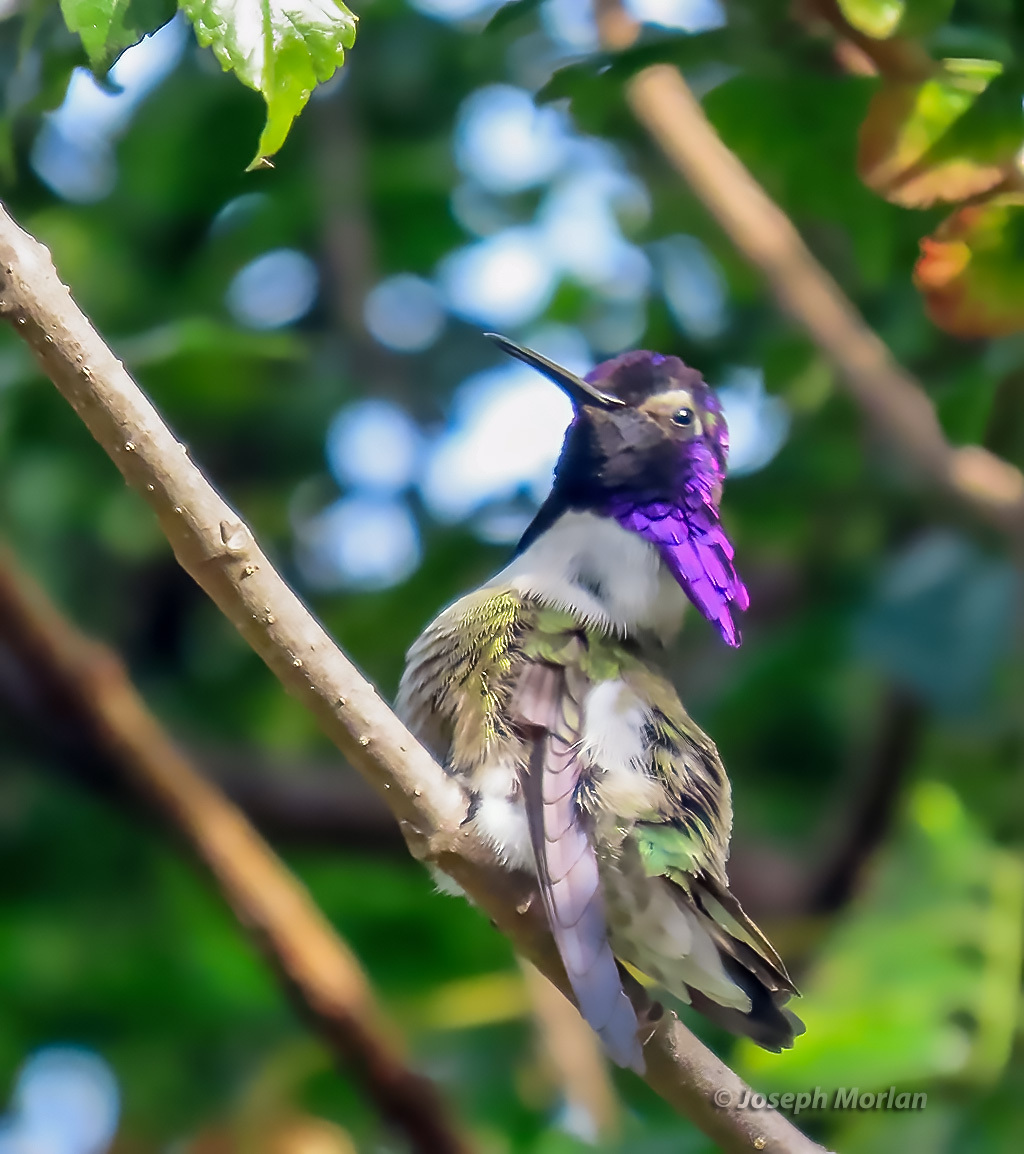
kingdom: Animalia
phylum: Chordata
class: Aves
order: Apodiformes
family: Trochilidae
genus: Calypte
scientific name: Calypte costae
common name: Costa's hummingbird
